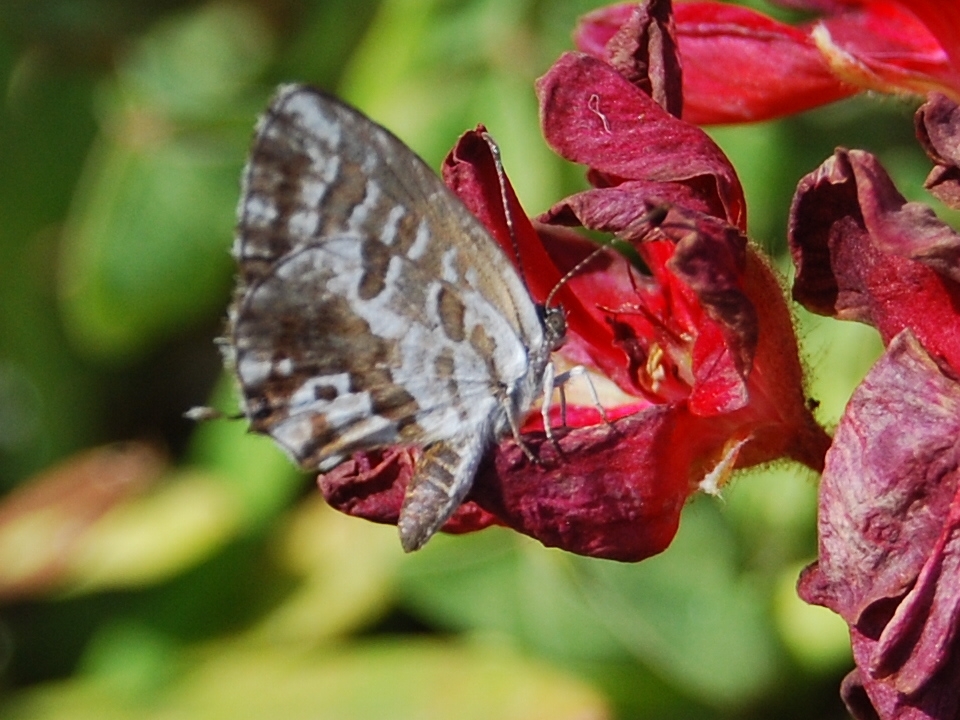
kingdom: Animalia
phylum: Arthropoda
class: Insecta
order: Lepidoptera
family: Lycaenidae
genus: Cacyreus
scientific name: Cacyreus marshalli
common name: Geranium bronze
